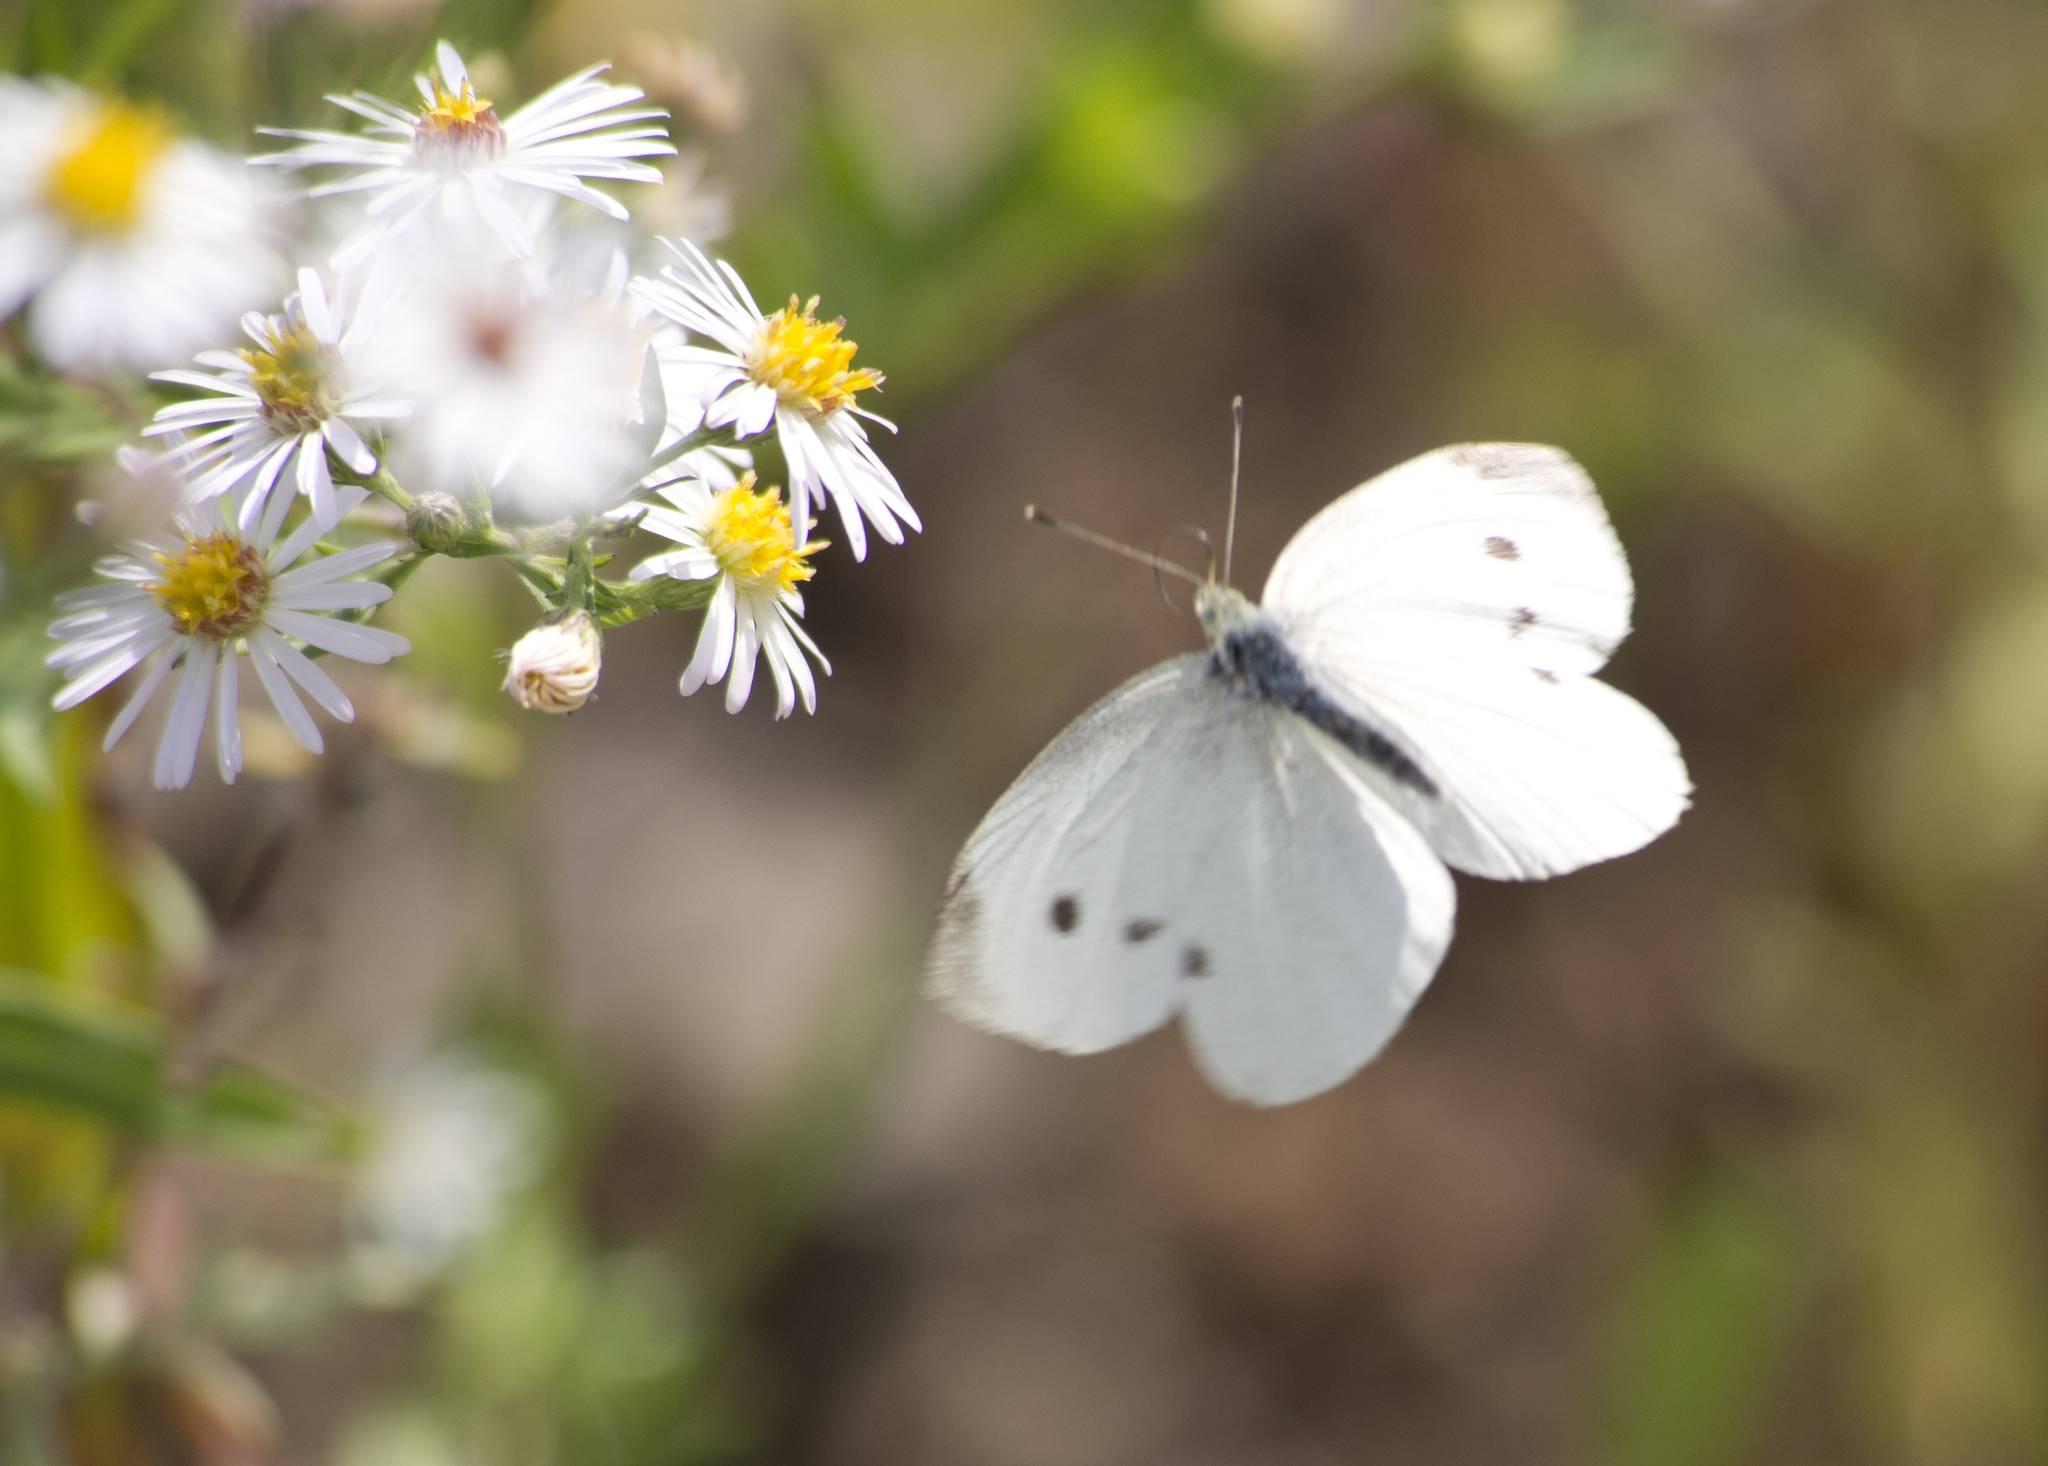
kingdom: Animalia
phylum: Arthropoda
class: Insecta
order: Lepidoptera
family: Pieridae
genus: Pieris
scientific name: Pieris rapae
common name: Small white
